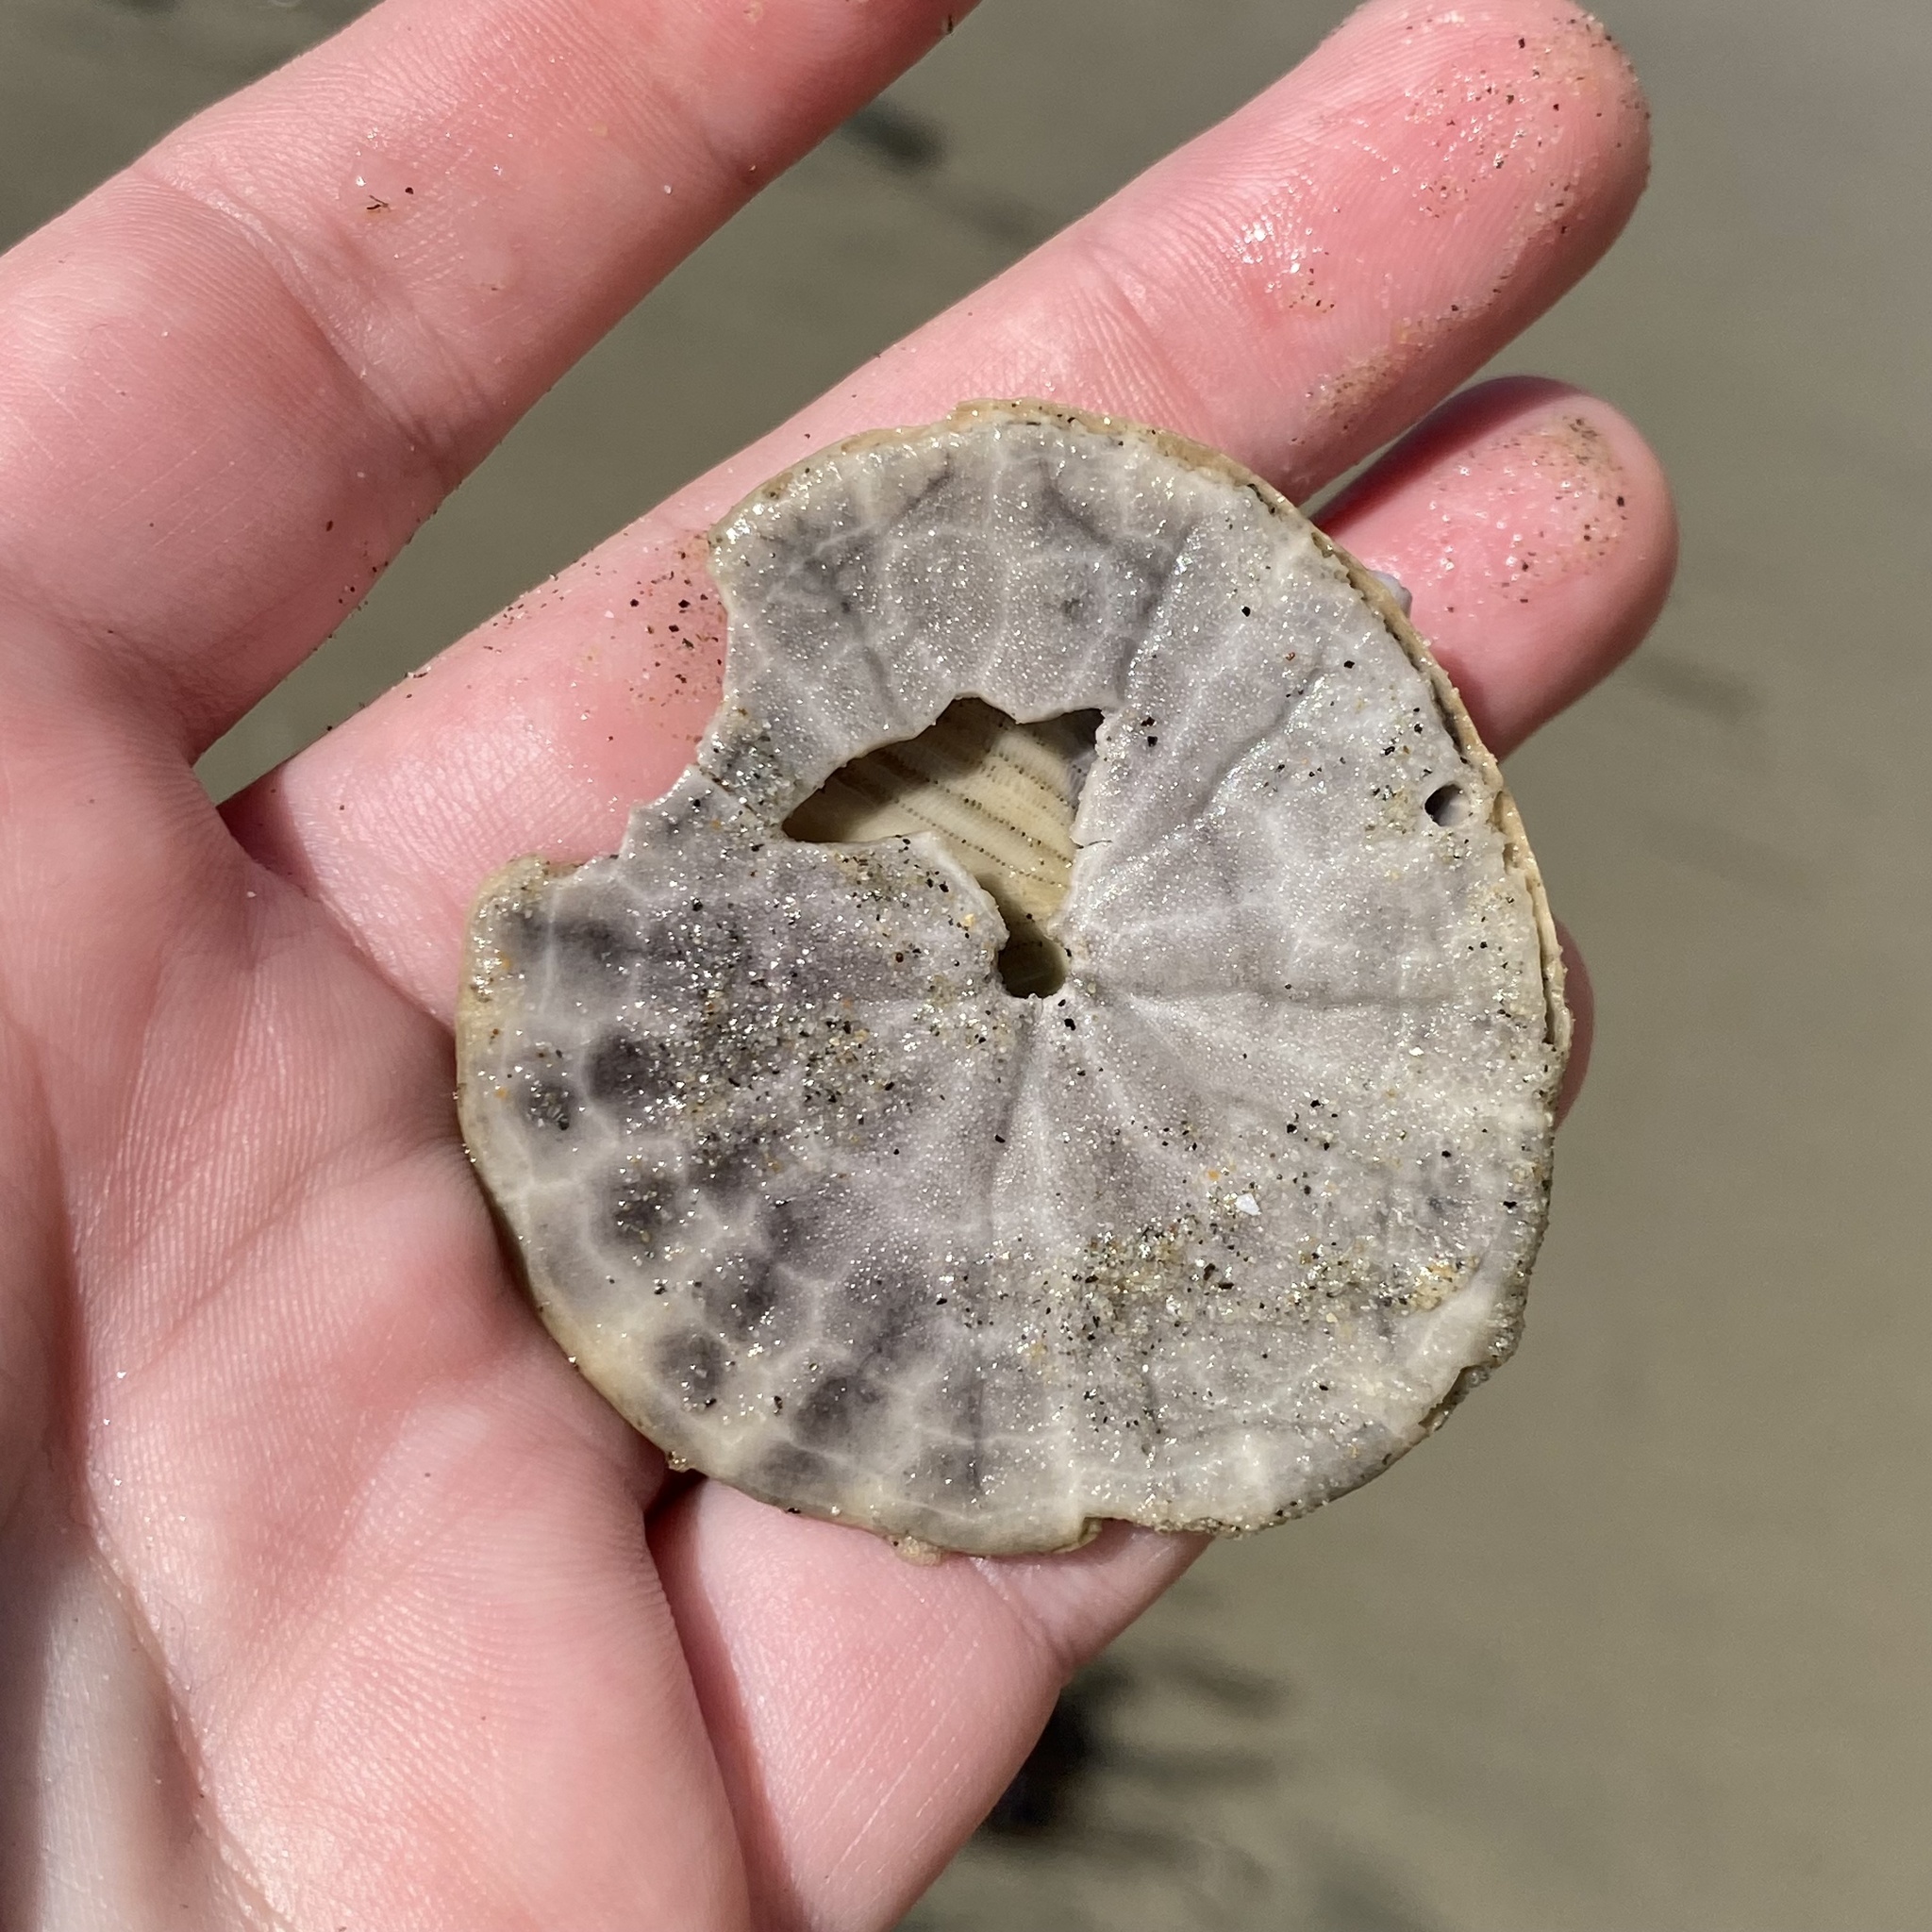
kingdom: Animalia
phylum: Echinodermata
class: Echinoidea
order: Echinolampadacea
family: Dendrasteridae
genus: Dendraster
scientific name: Dendraster excentricus
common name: Eccentric sand dollar sea urchin
